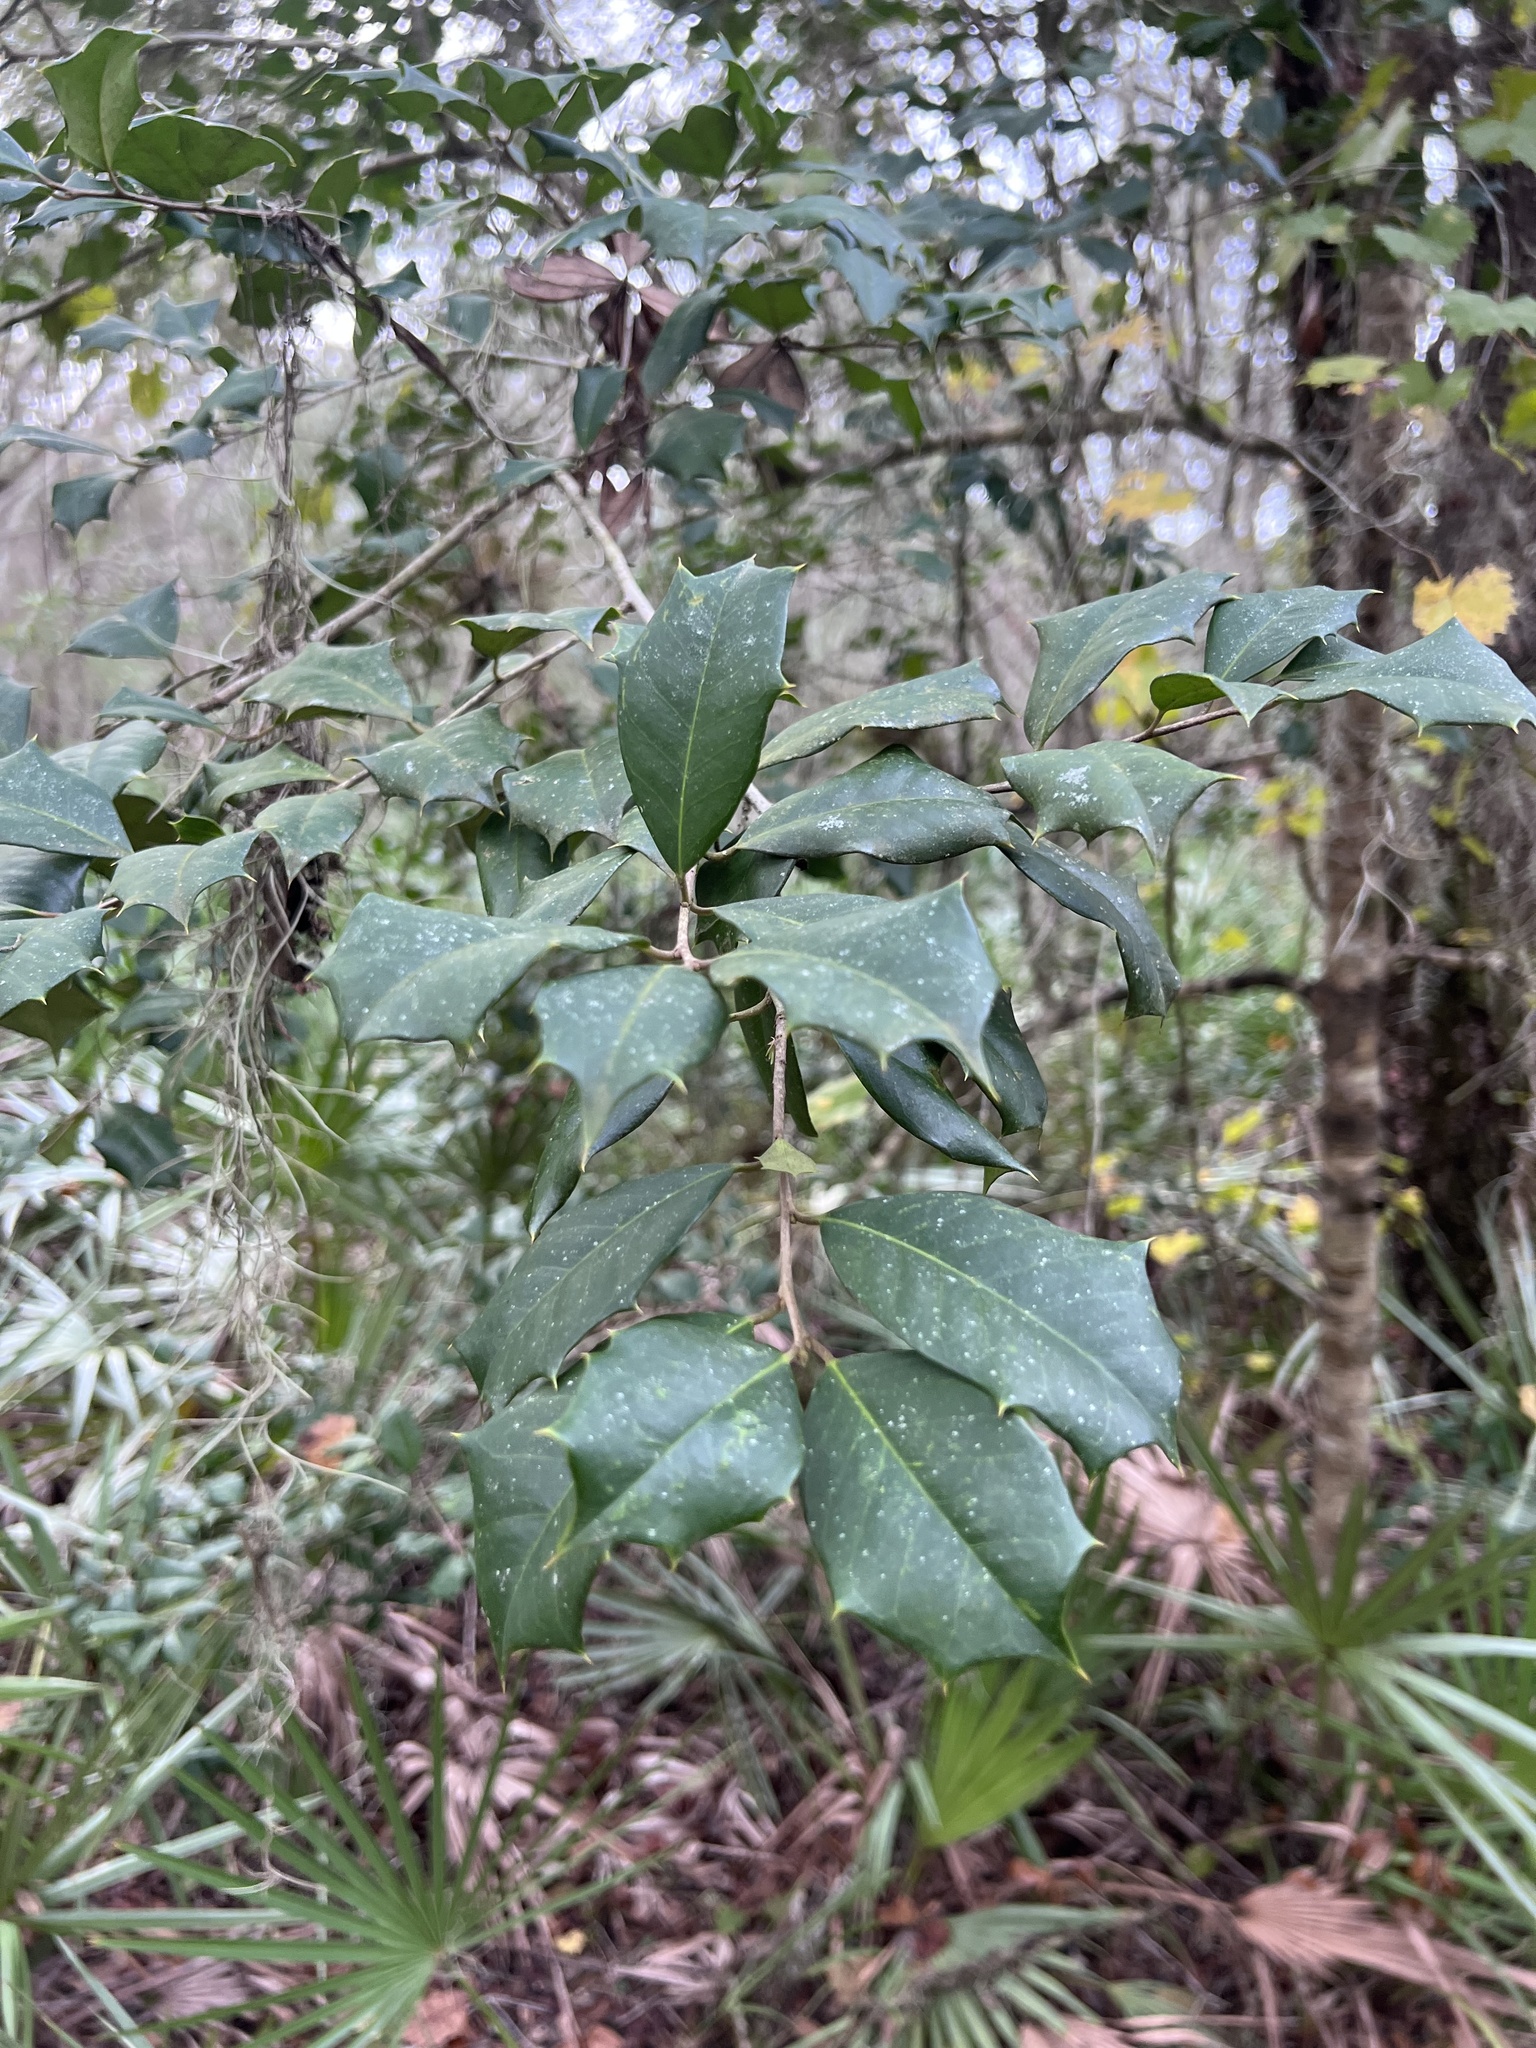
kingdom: Plantae
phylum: Tracheophyta
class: Magnoliopsida
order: Aquifoliales
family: Aquifoliaceae
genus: Ilex
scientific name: Ilex opaca
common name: American holly
